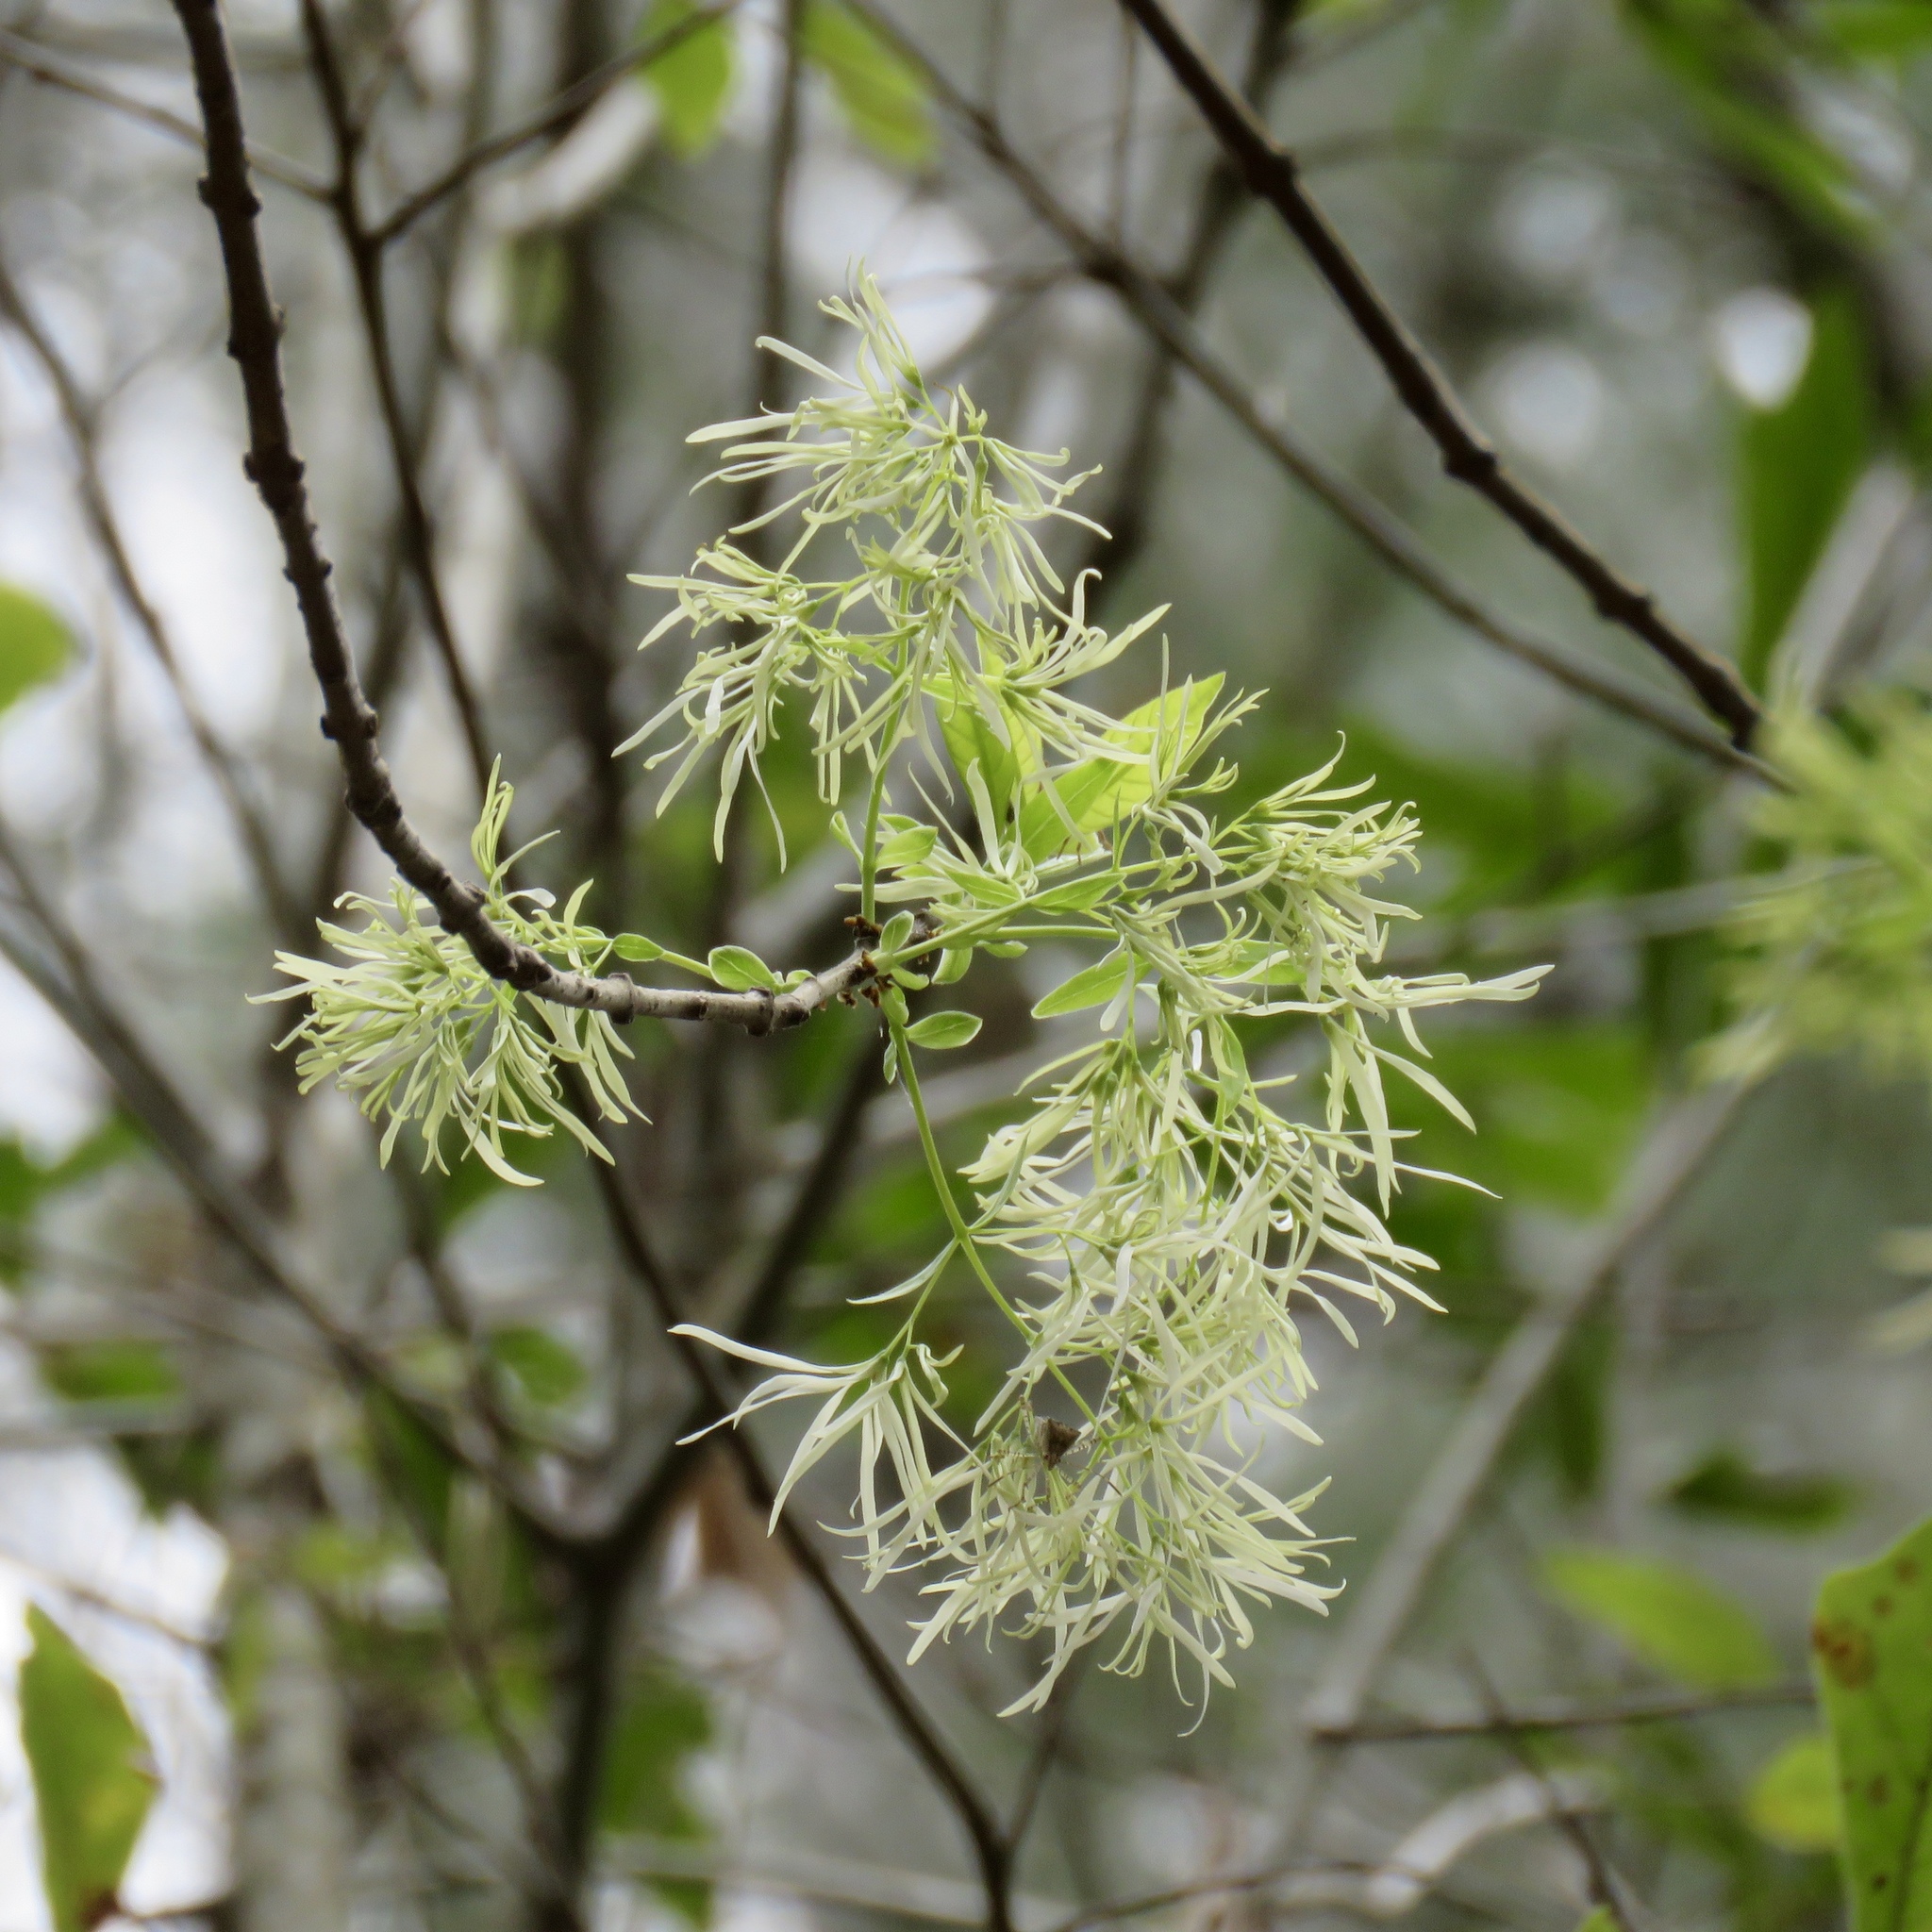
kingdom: Plantae
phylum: Tracheophyta
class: Magnoliopsida
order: Lamiales
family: Oleaceae
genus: Chionanthus
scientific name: Chionanthus virginicus
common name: American fringetree
